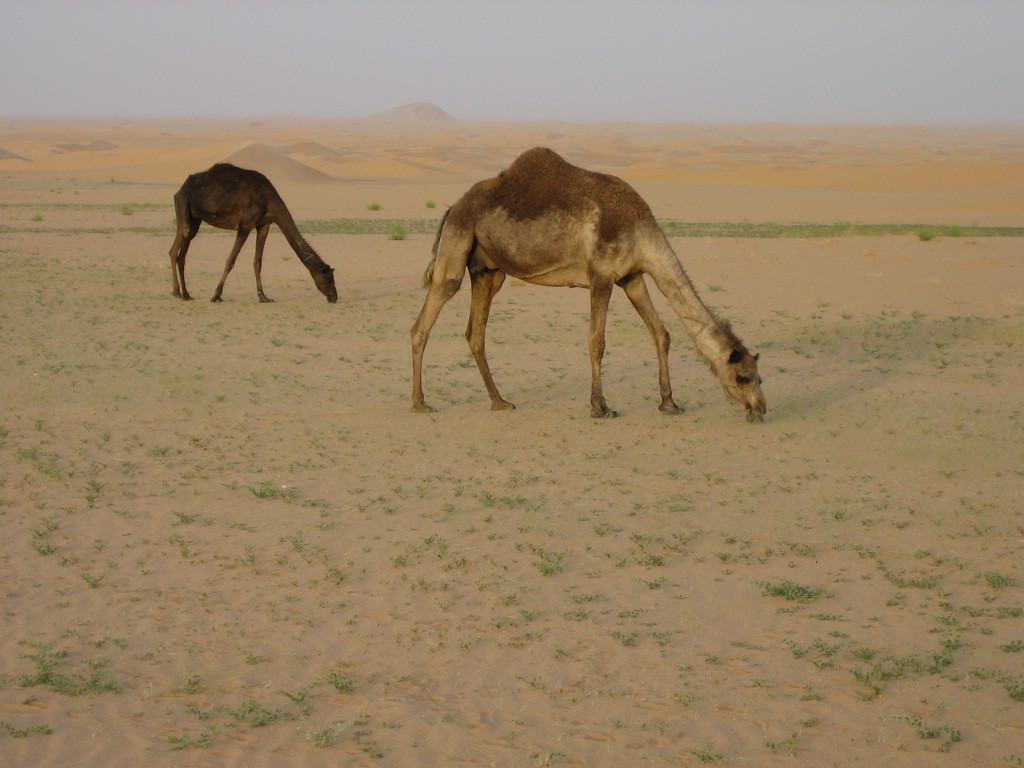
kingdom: Animalia
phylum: Chordata
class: Mammalia
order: Artiodactyla
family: Camelidae
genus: Camelus
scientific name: Camelus dromedarius
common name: One-humped camel
